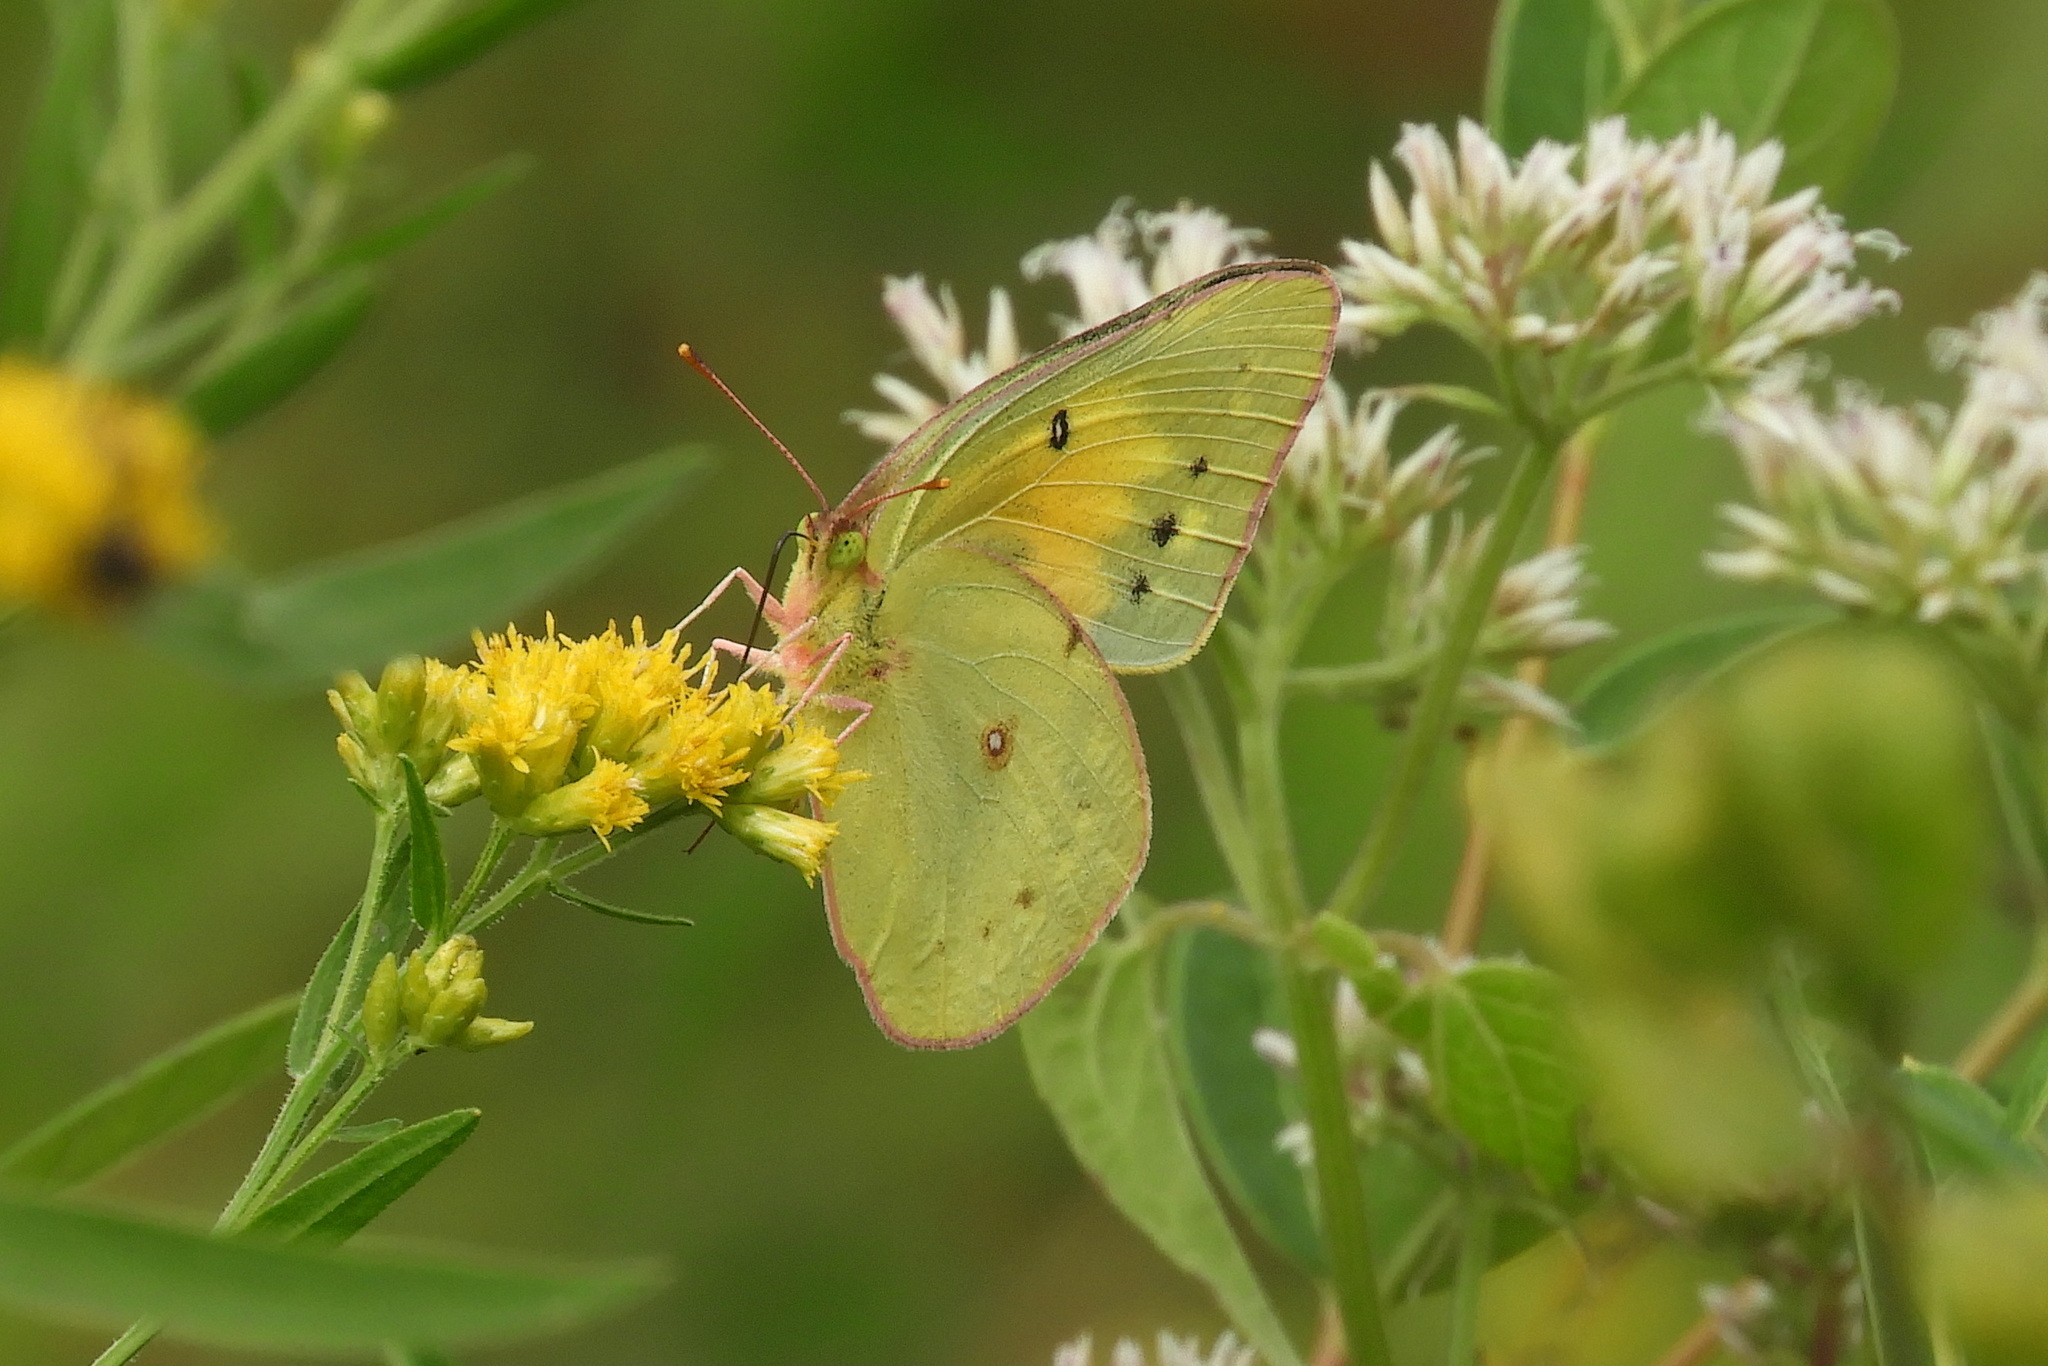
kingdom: Animalia
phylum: Arthropoda
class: Insecta
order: Lepidoptera
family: Pieridae
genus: Colias
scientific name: Colias eurytheme
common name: Alfalfa butterfly
